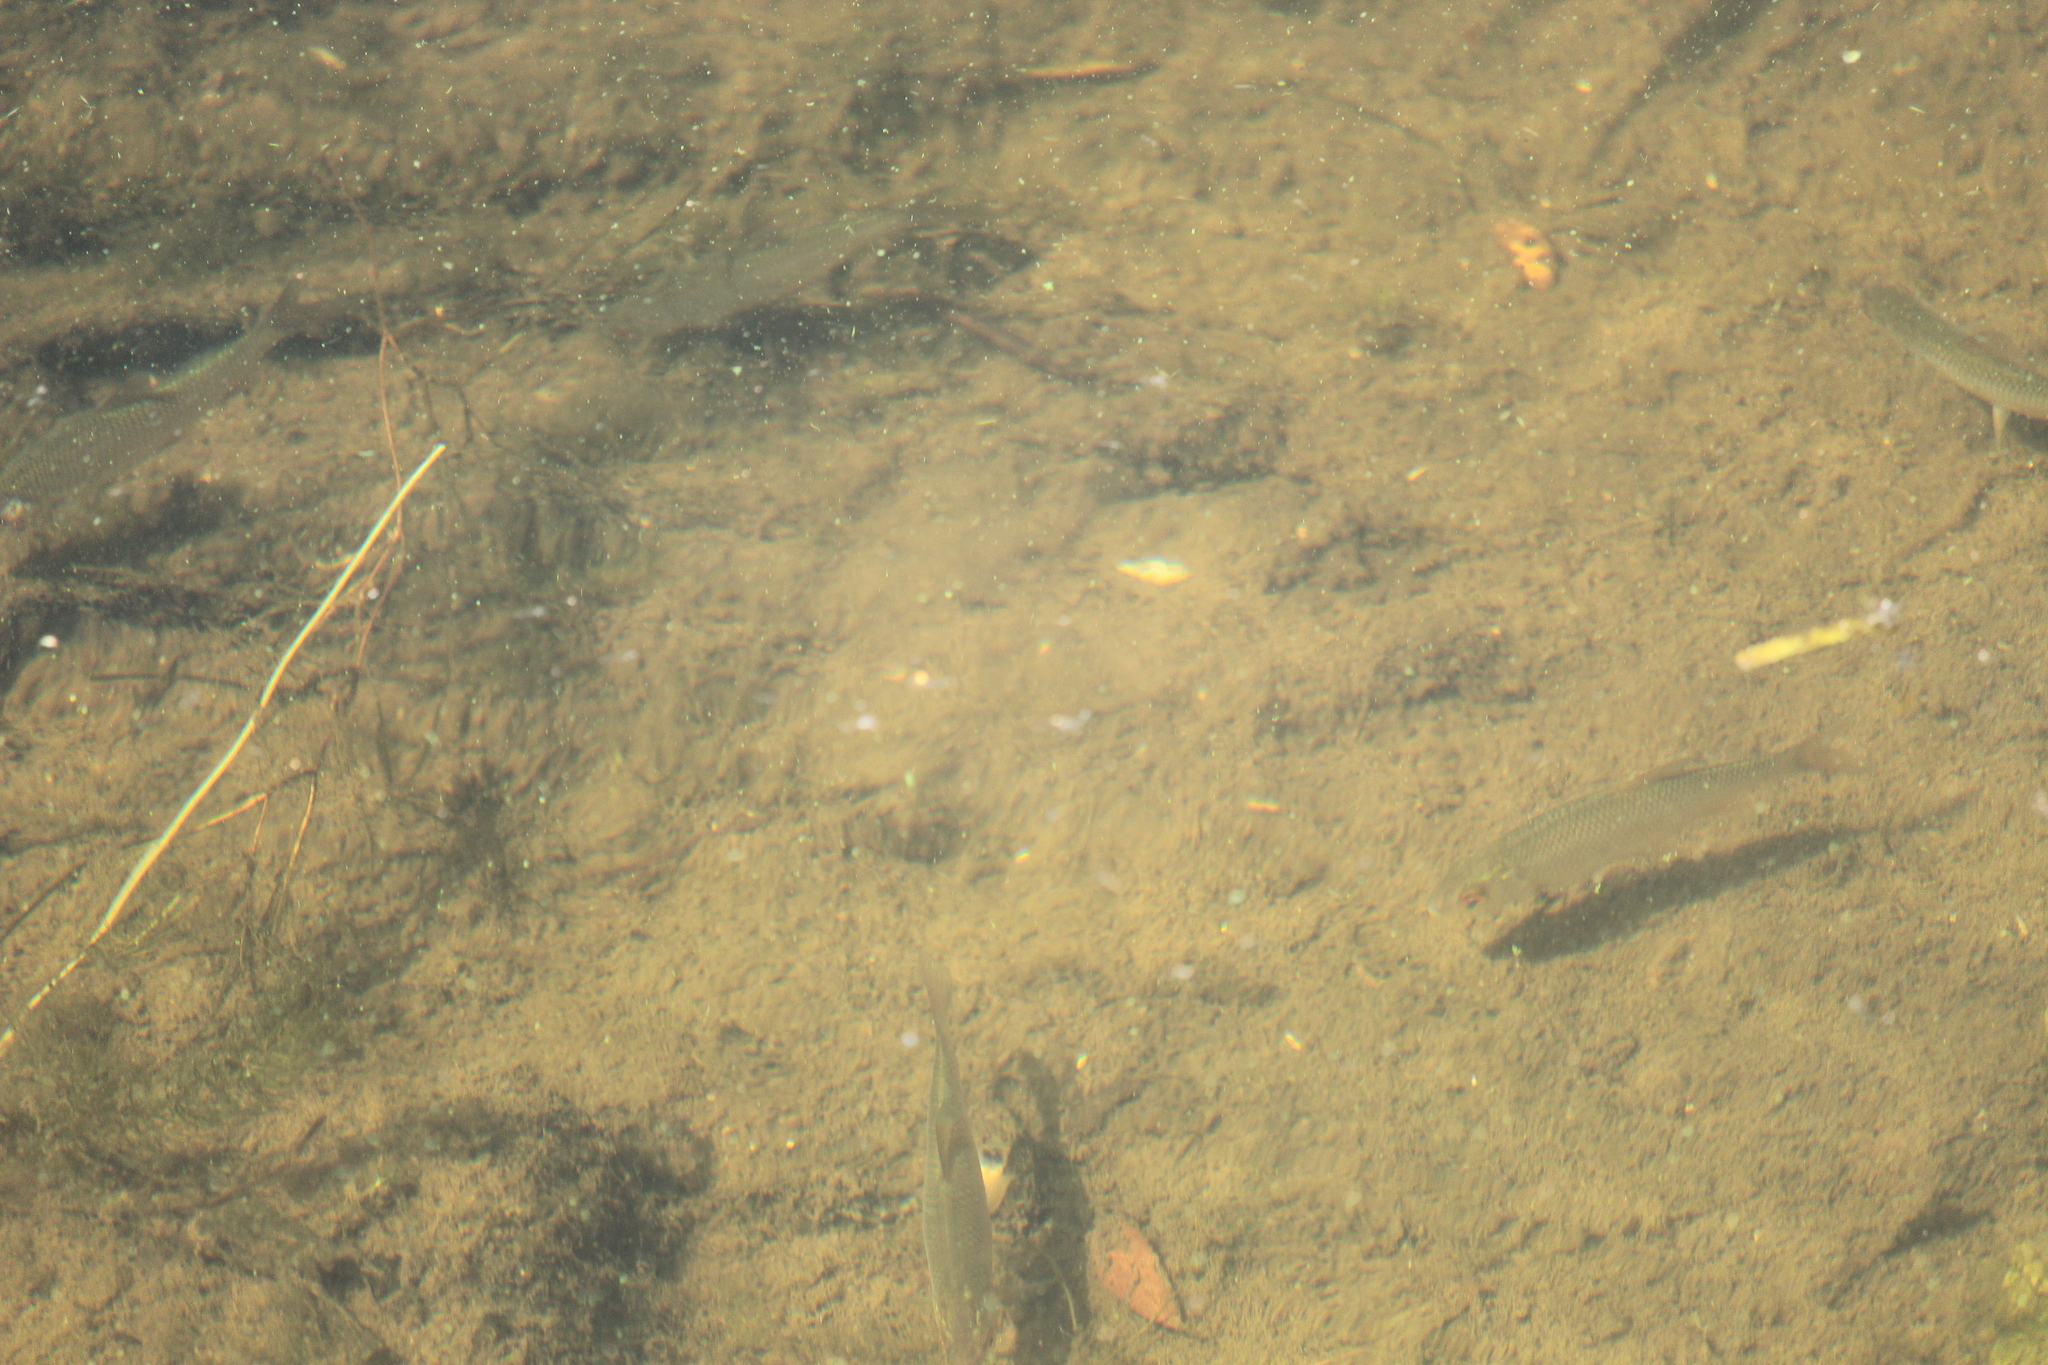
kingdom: Animalia
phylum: Chordata
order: Cypriniformes
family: Cyprinidae
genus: Rutilus
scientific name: Rutilus rutilus
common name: Roach
